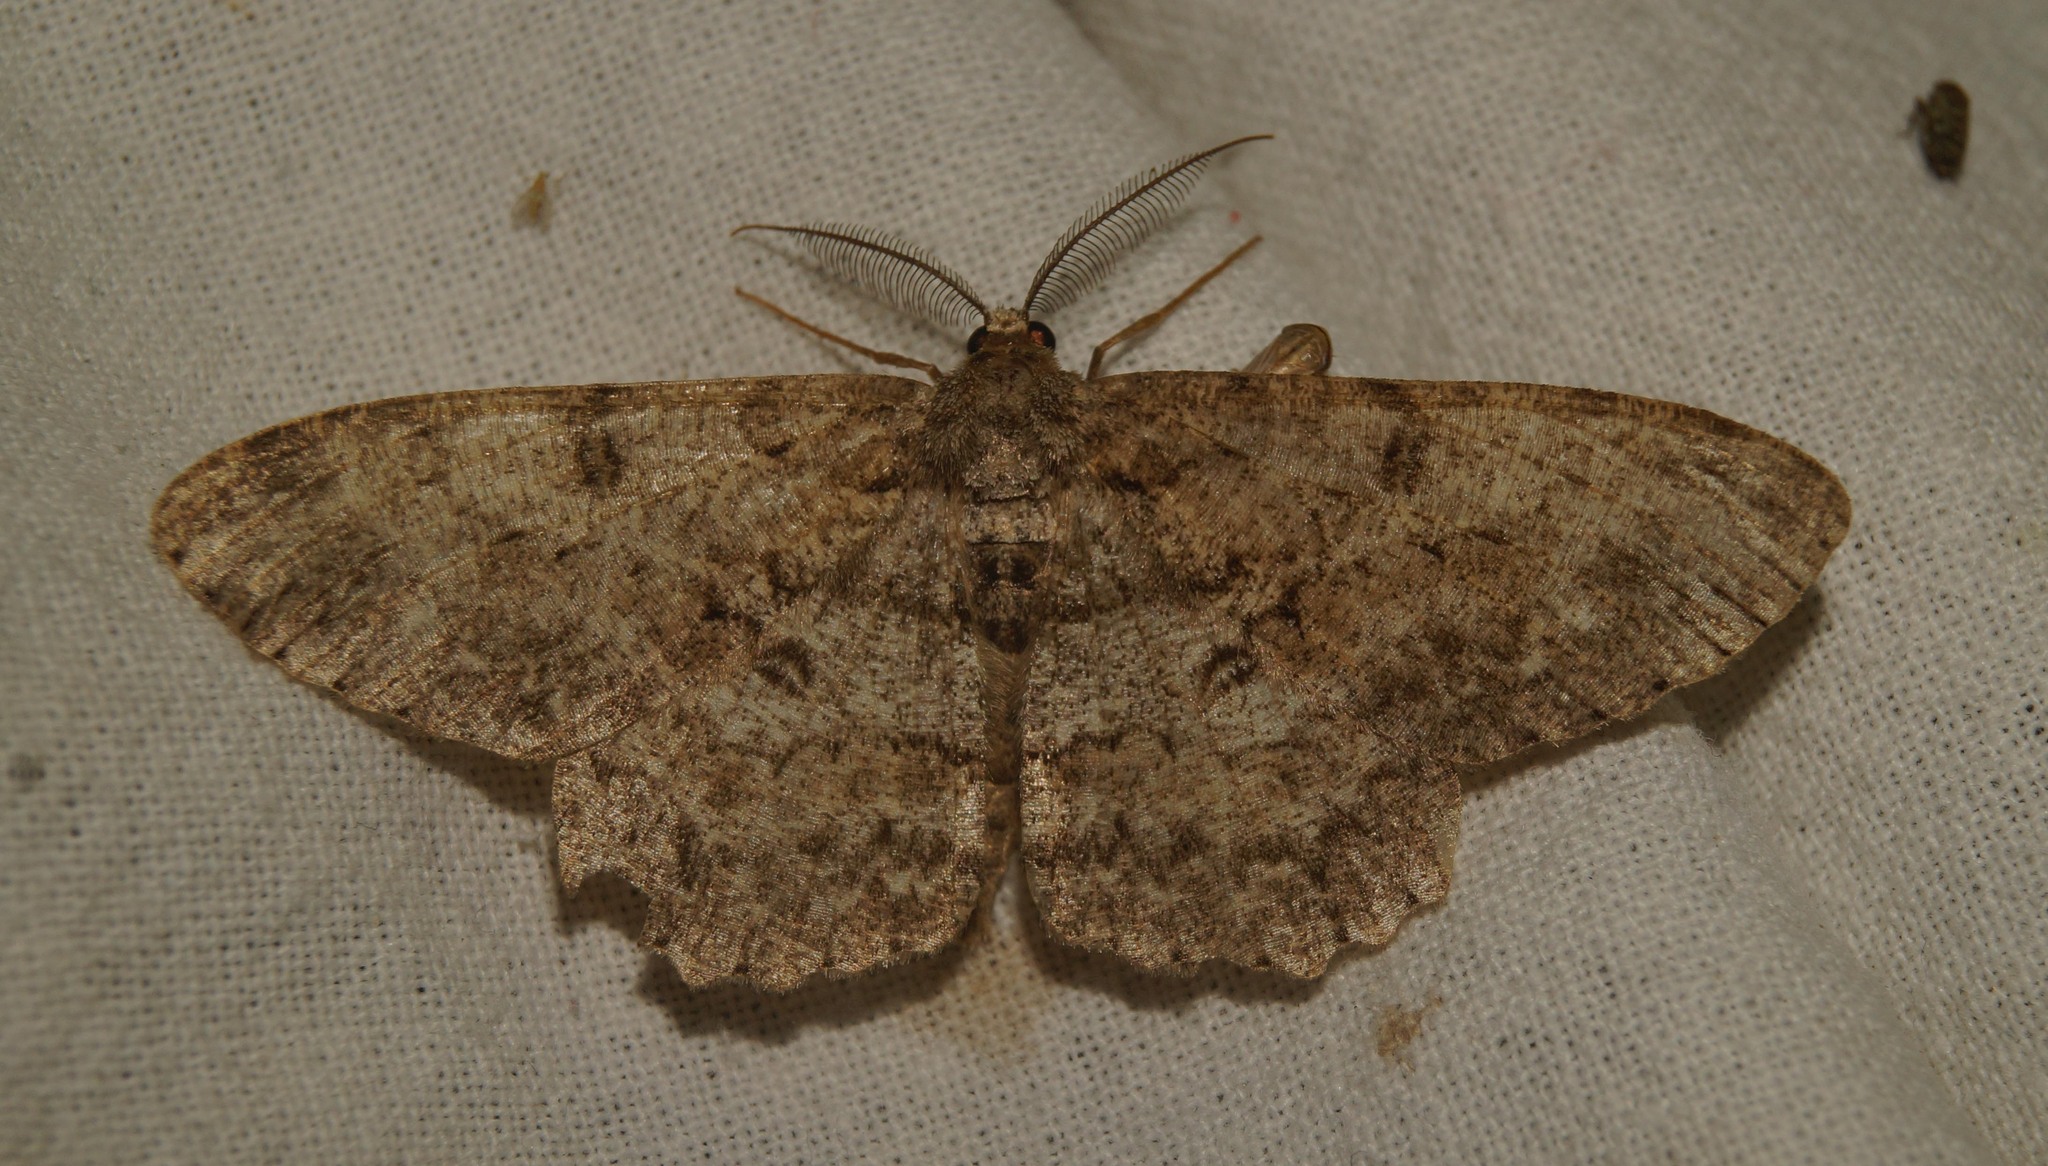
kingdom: Animalia
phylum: Arthropoda
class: Insecta
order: Lepidoptera
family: Geometridae
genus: Hypomecis
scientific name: Hypomecis punctinalis
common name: Pale oak beauty
